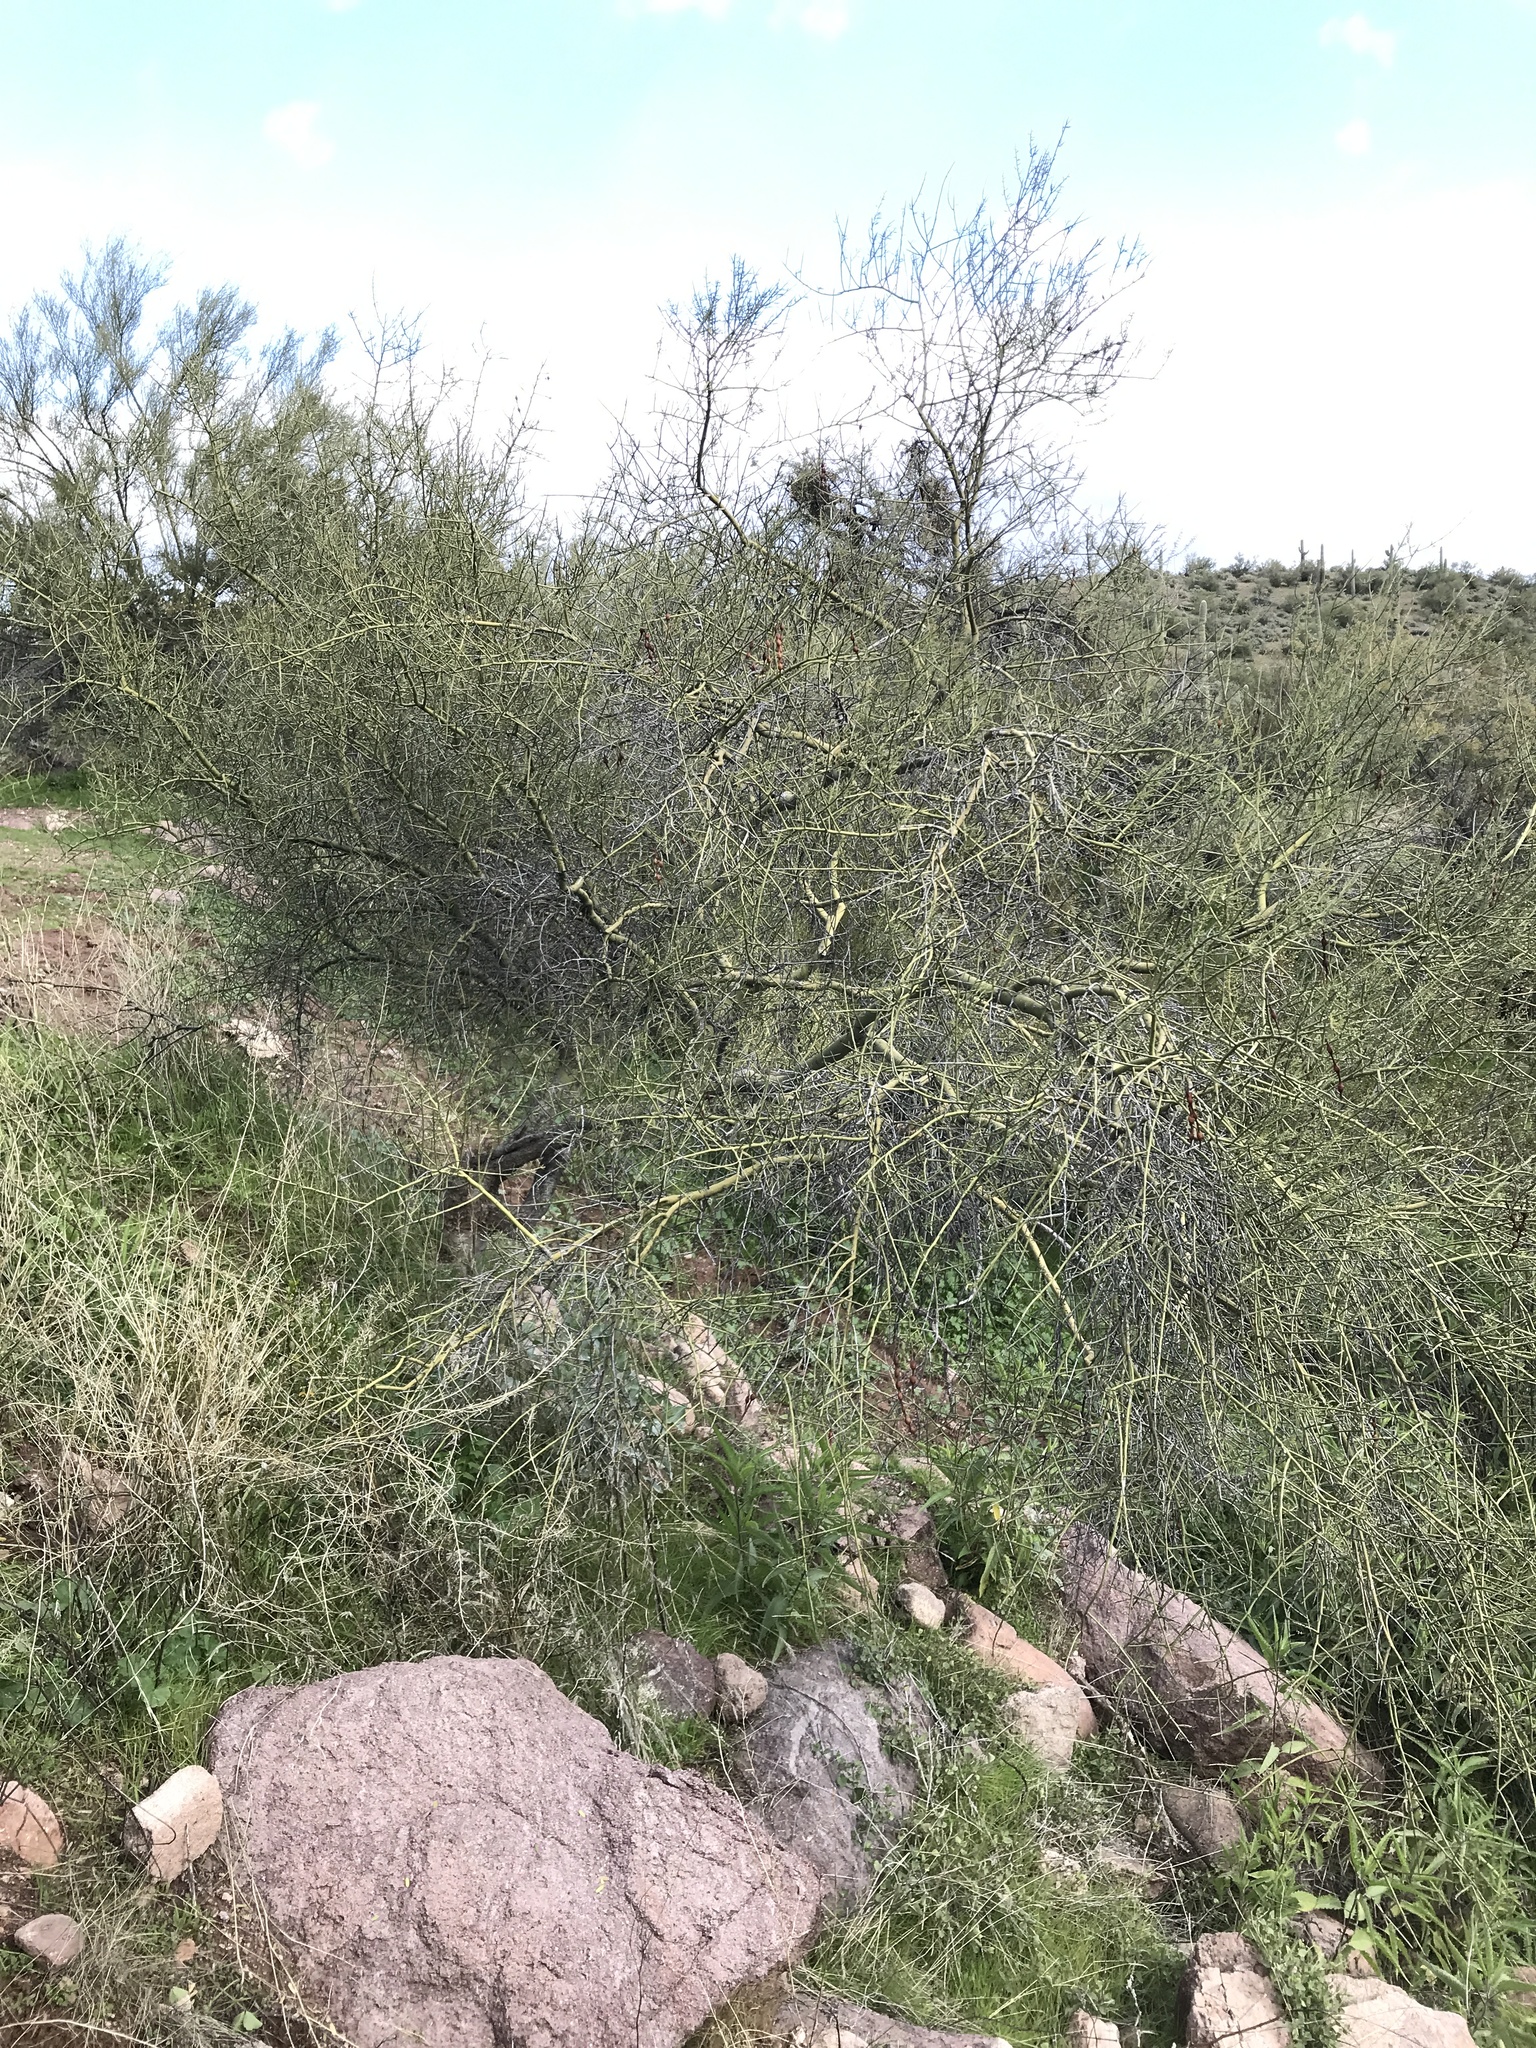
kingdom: Plantae
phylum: Tracheophyta
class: Magnoliopsida
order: Fabales
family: Fabaceae
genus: Parkinsonia
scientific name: Parkinsonia microphylla
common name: Yellow paloverde
